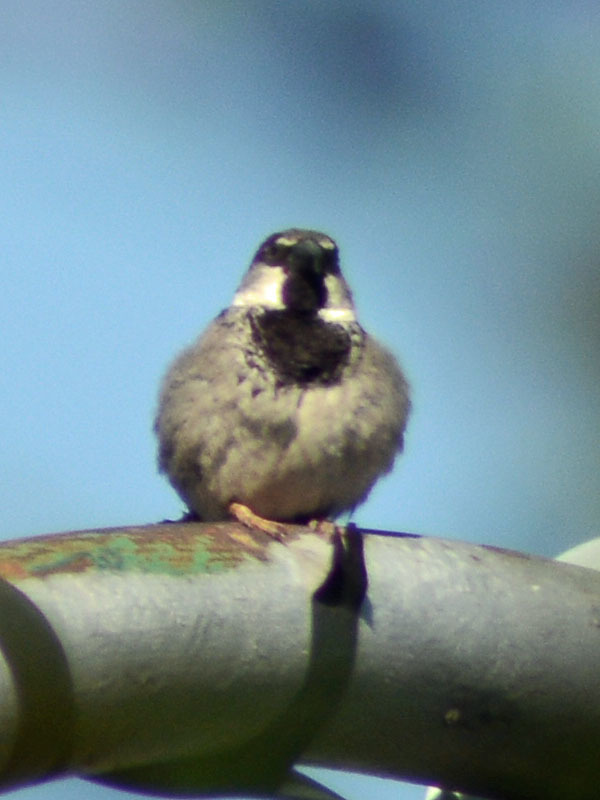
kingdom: Animalia
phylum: Chordata
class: Aves
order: Passeriformes
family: Passeridae
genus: Passer
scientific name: Passer domesticus
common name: House sparrow
